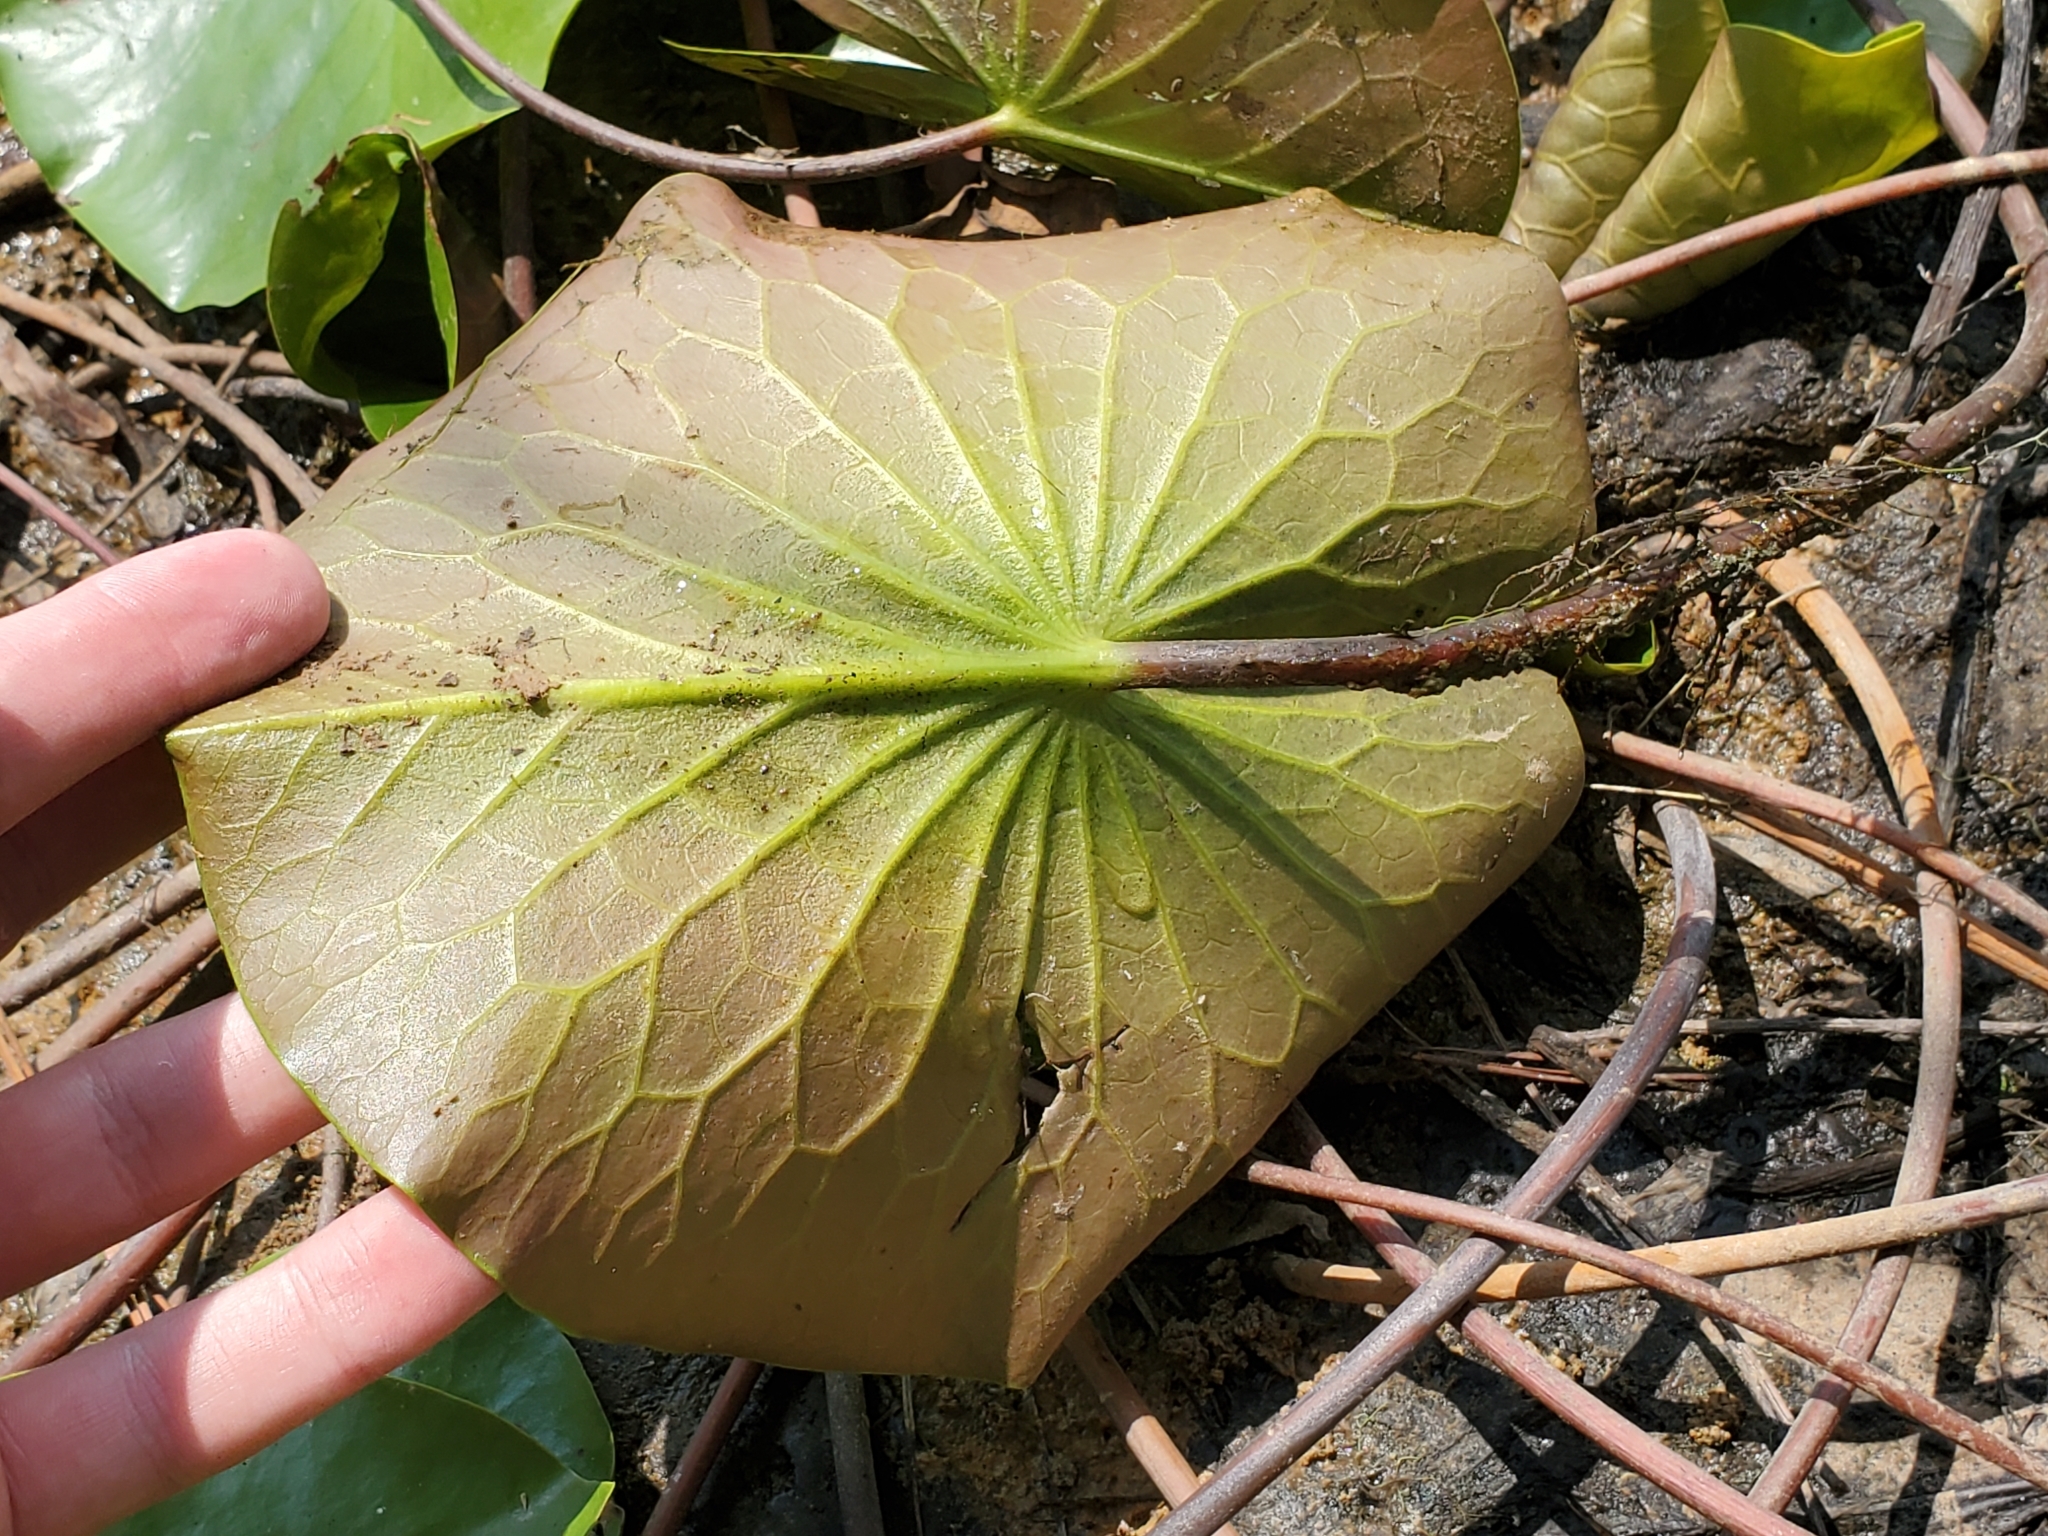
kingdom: Plantae
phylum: Tracheophyta
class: Magnoliopsida
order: Nymphaeales
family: Nymphaeaceae
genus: Nymphaea
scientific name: Nymphaea odorata
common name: Fragrant water-lily
